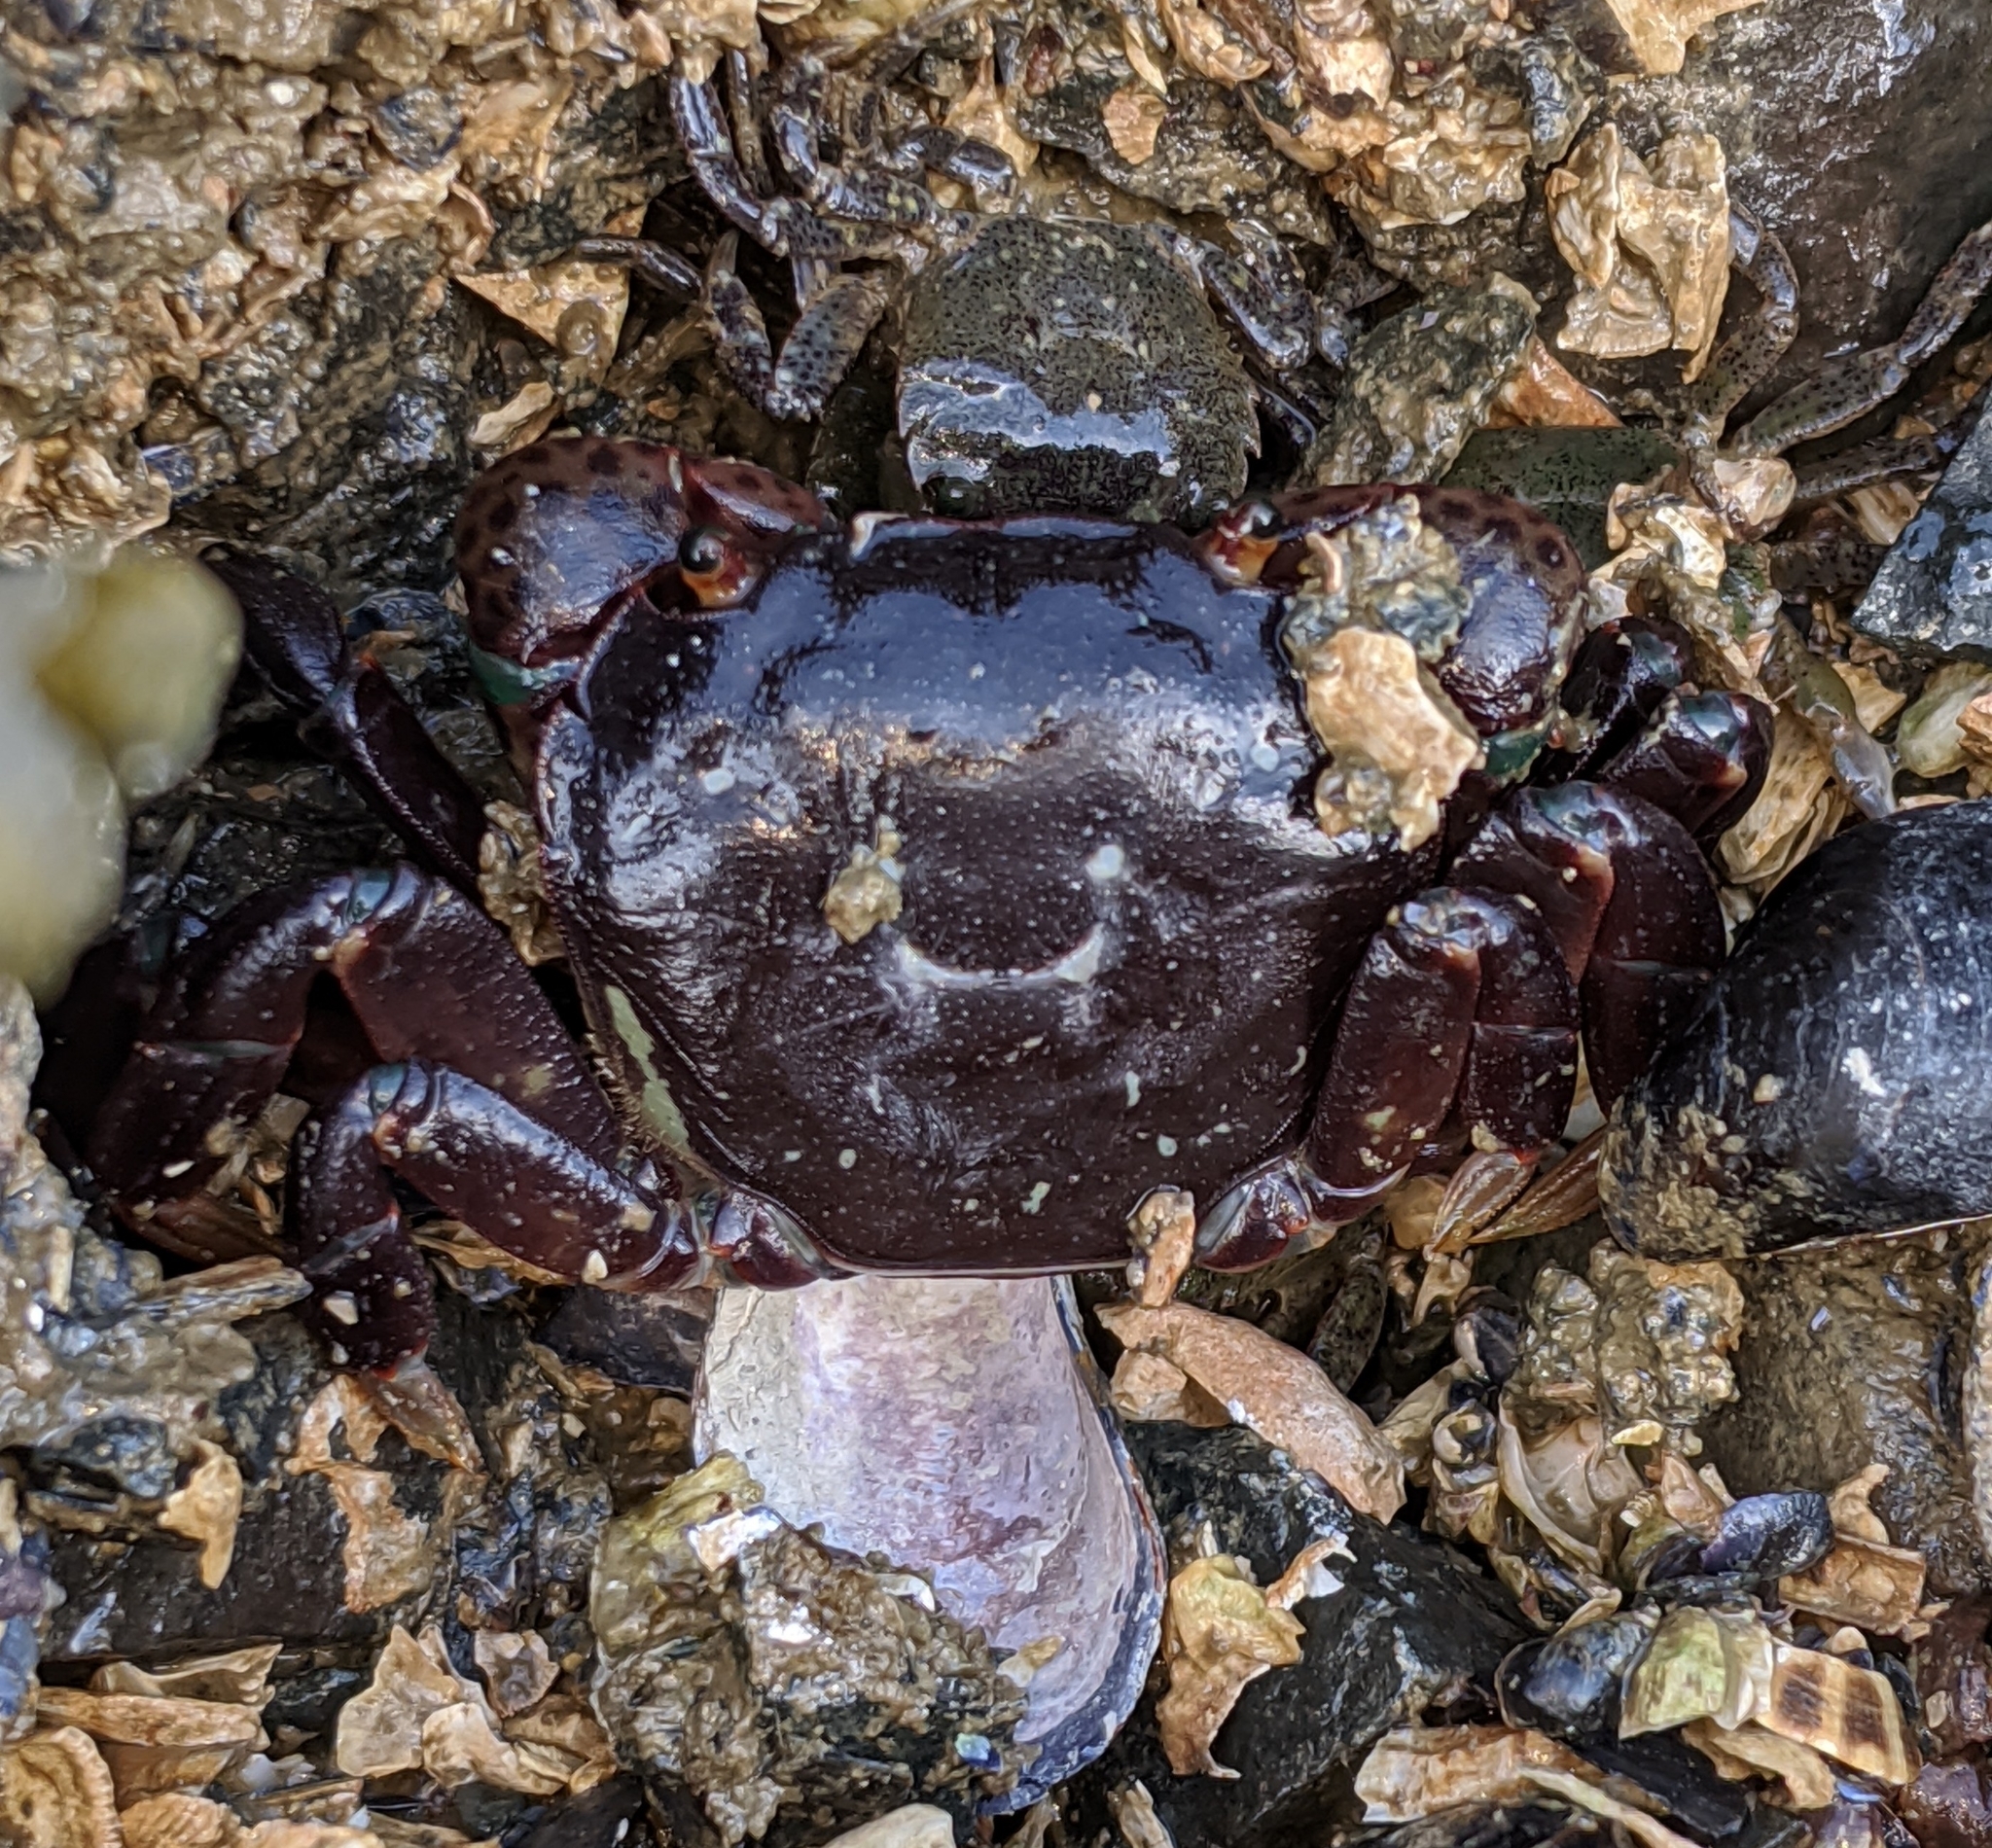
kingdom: Animalia
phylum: Arthropoda
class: Malacostraca
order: Decapoda
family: Varunidae
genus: Hemigrapsus
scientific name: Hemigrapsus nudus
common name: Purple shore crab
